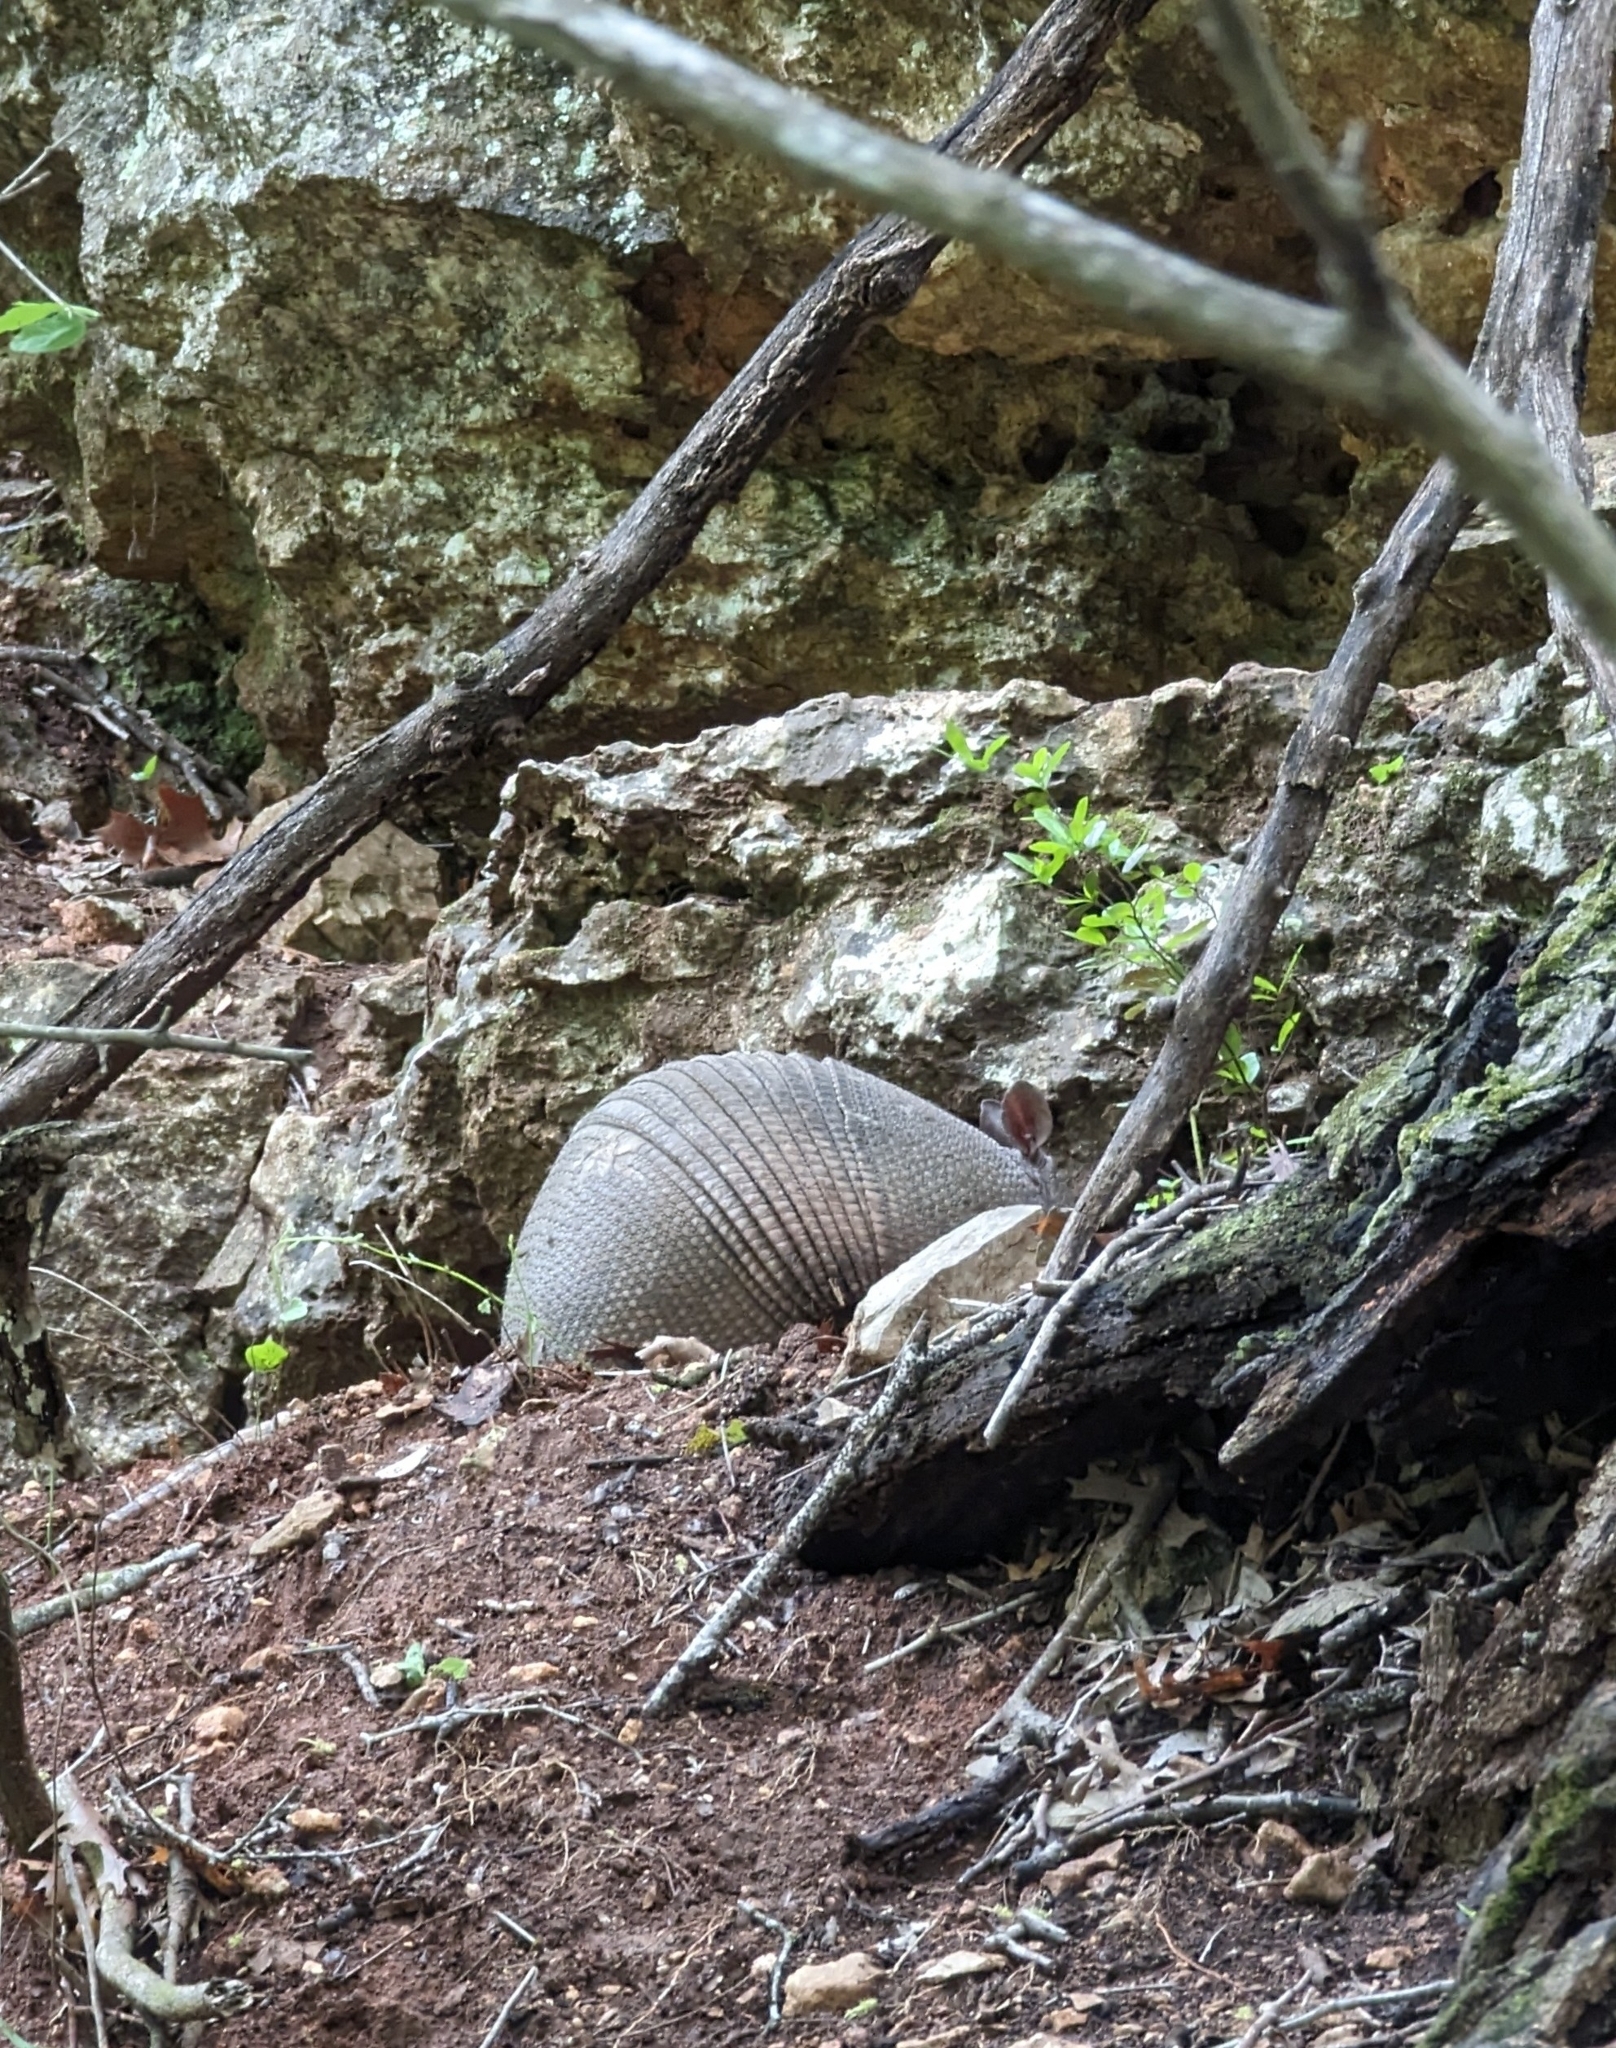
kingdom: Animalia
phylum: Chordata
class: Mammalia
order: Cingulata
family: Dasypodidae
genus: Dasypus
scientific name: Dasypus novemcinctus
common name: Nine-banded armadillo
